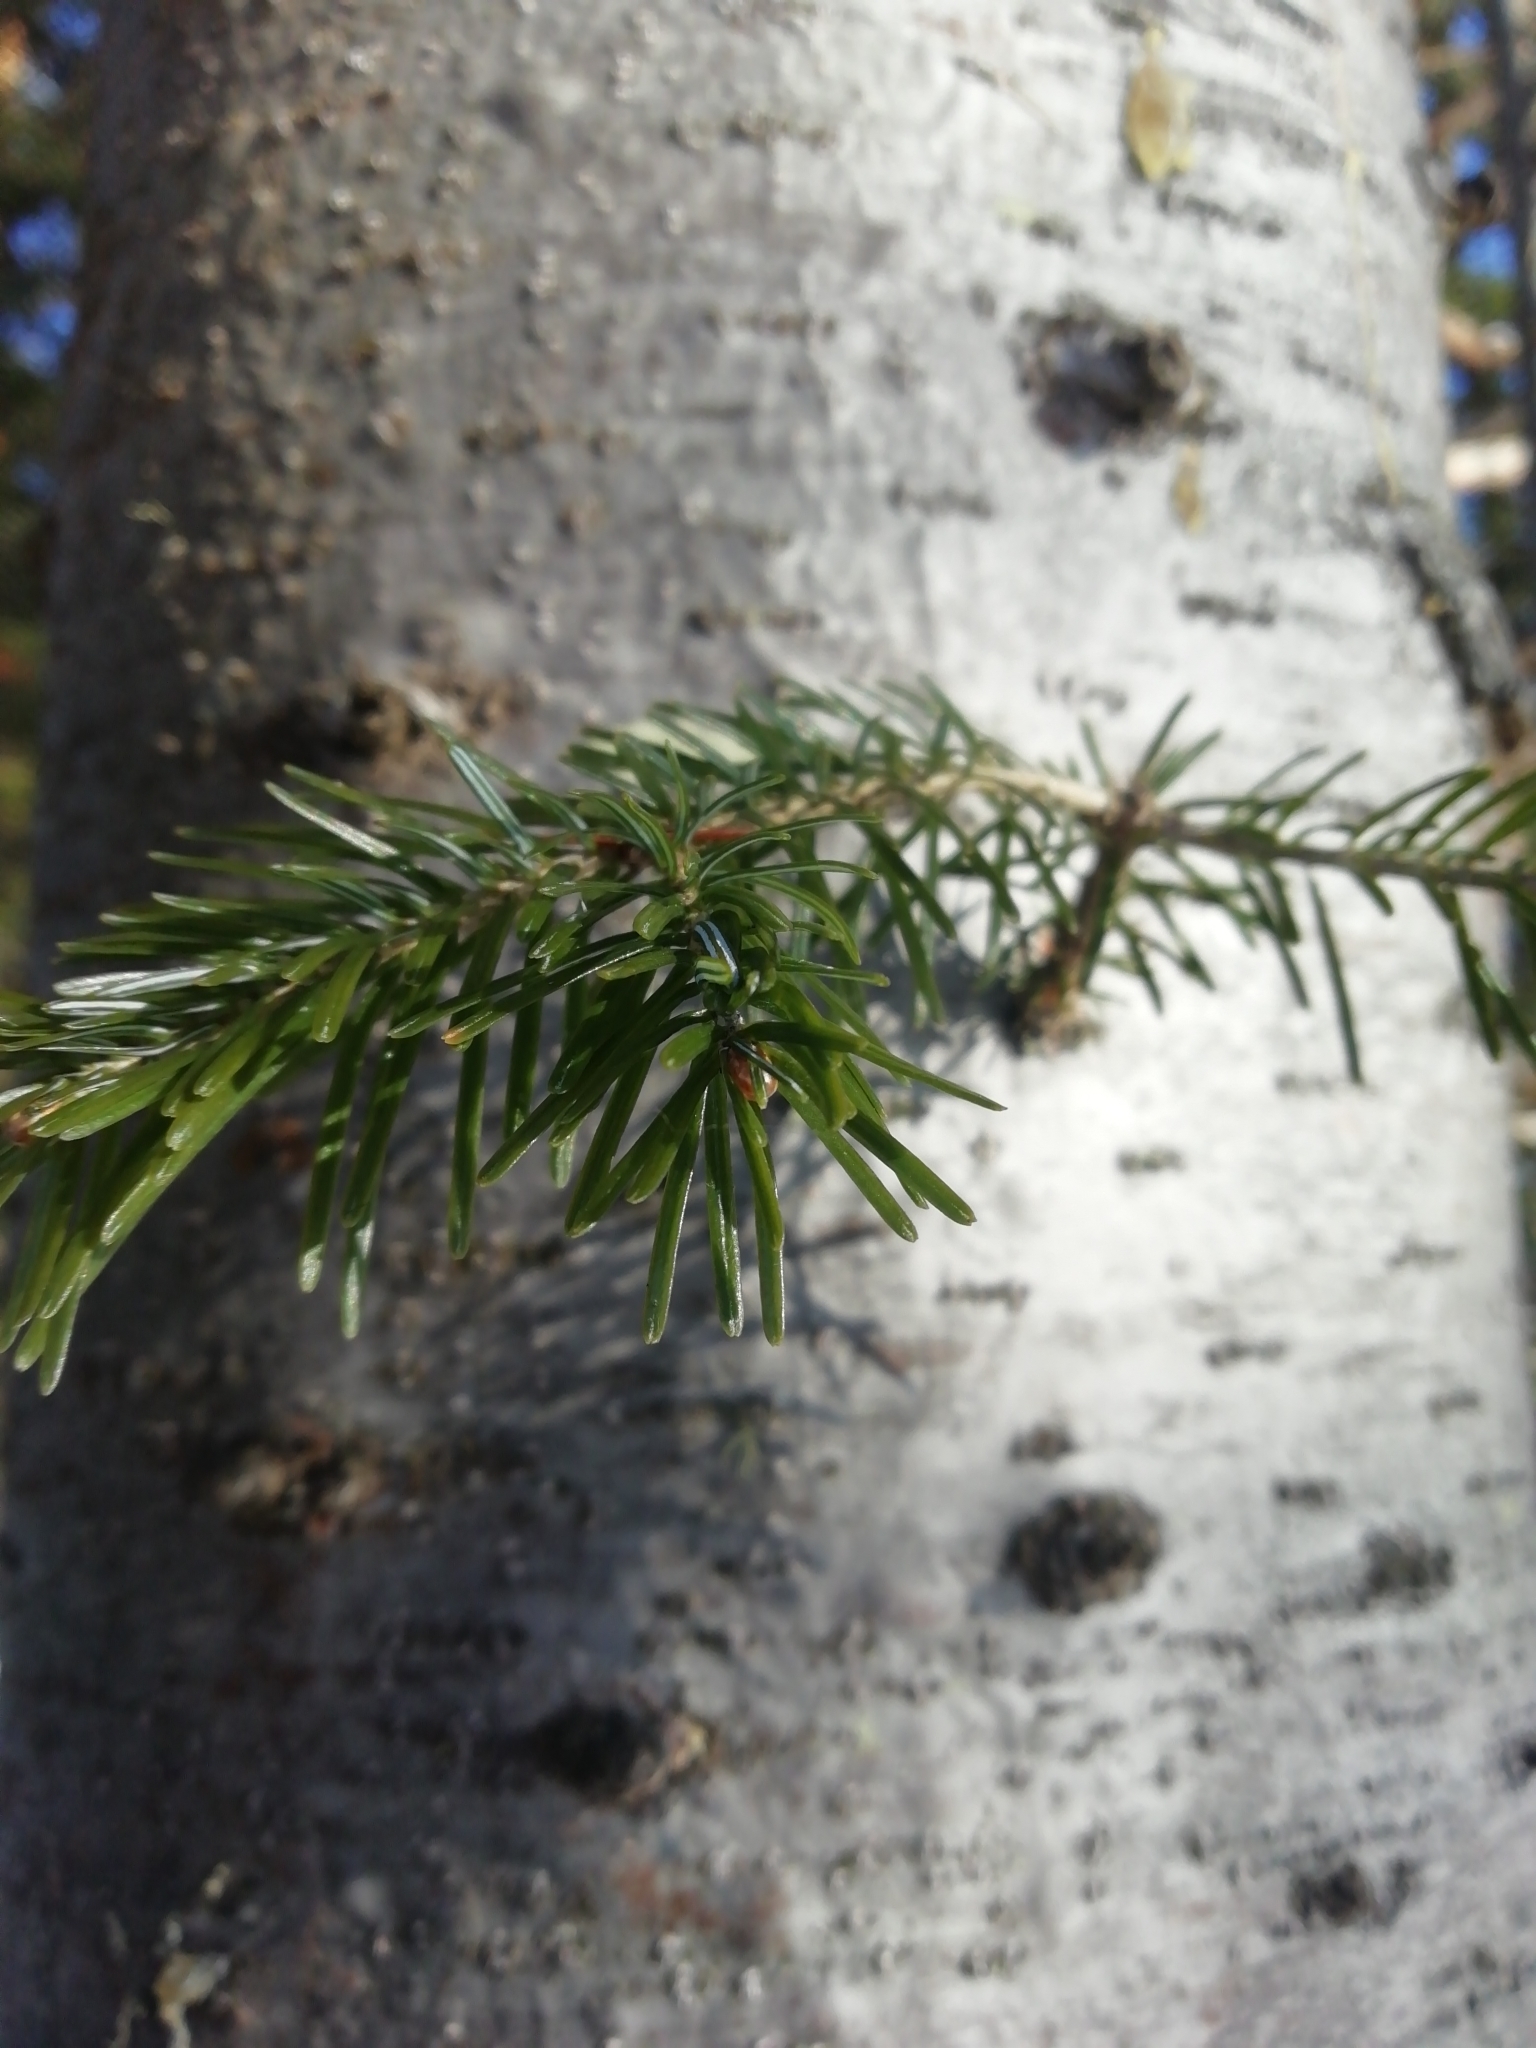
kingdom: Plantae
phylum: Tracheophyta
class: Pinopsida
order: Pinales
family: Pinaceae
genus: Abies
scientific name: Abies sibirica
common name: Siberian fir
